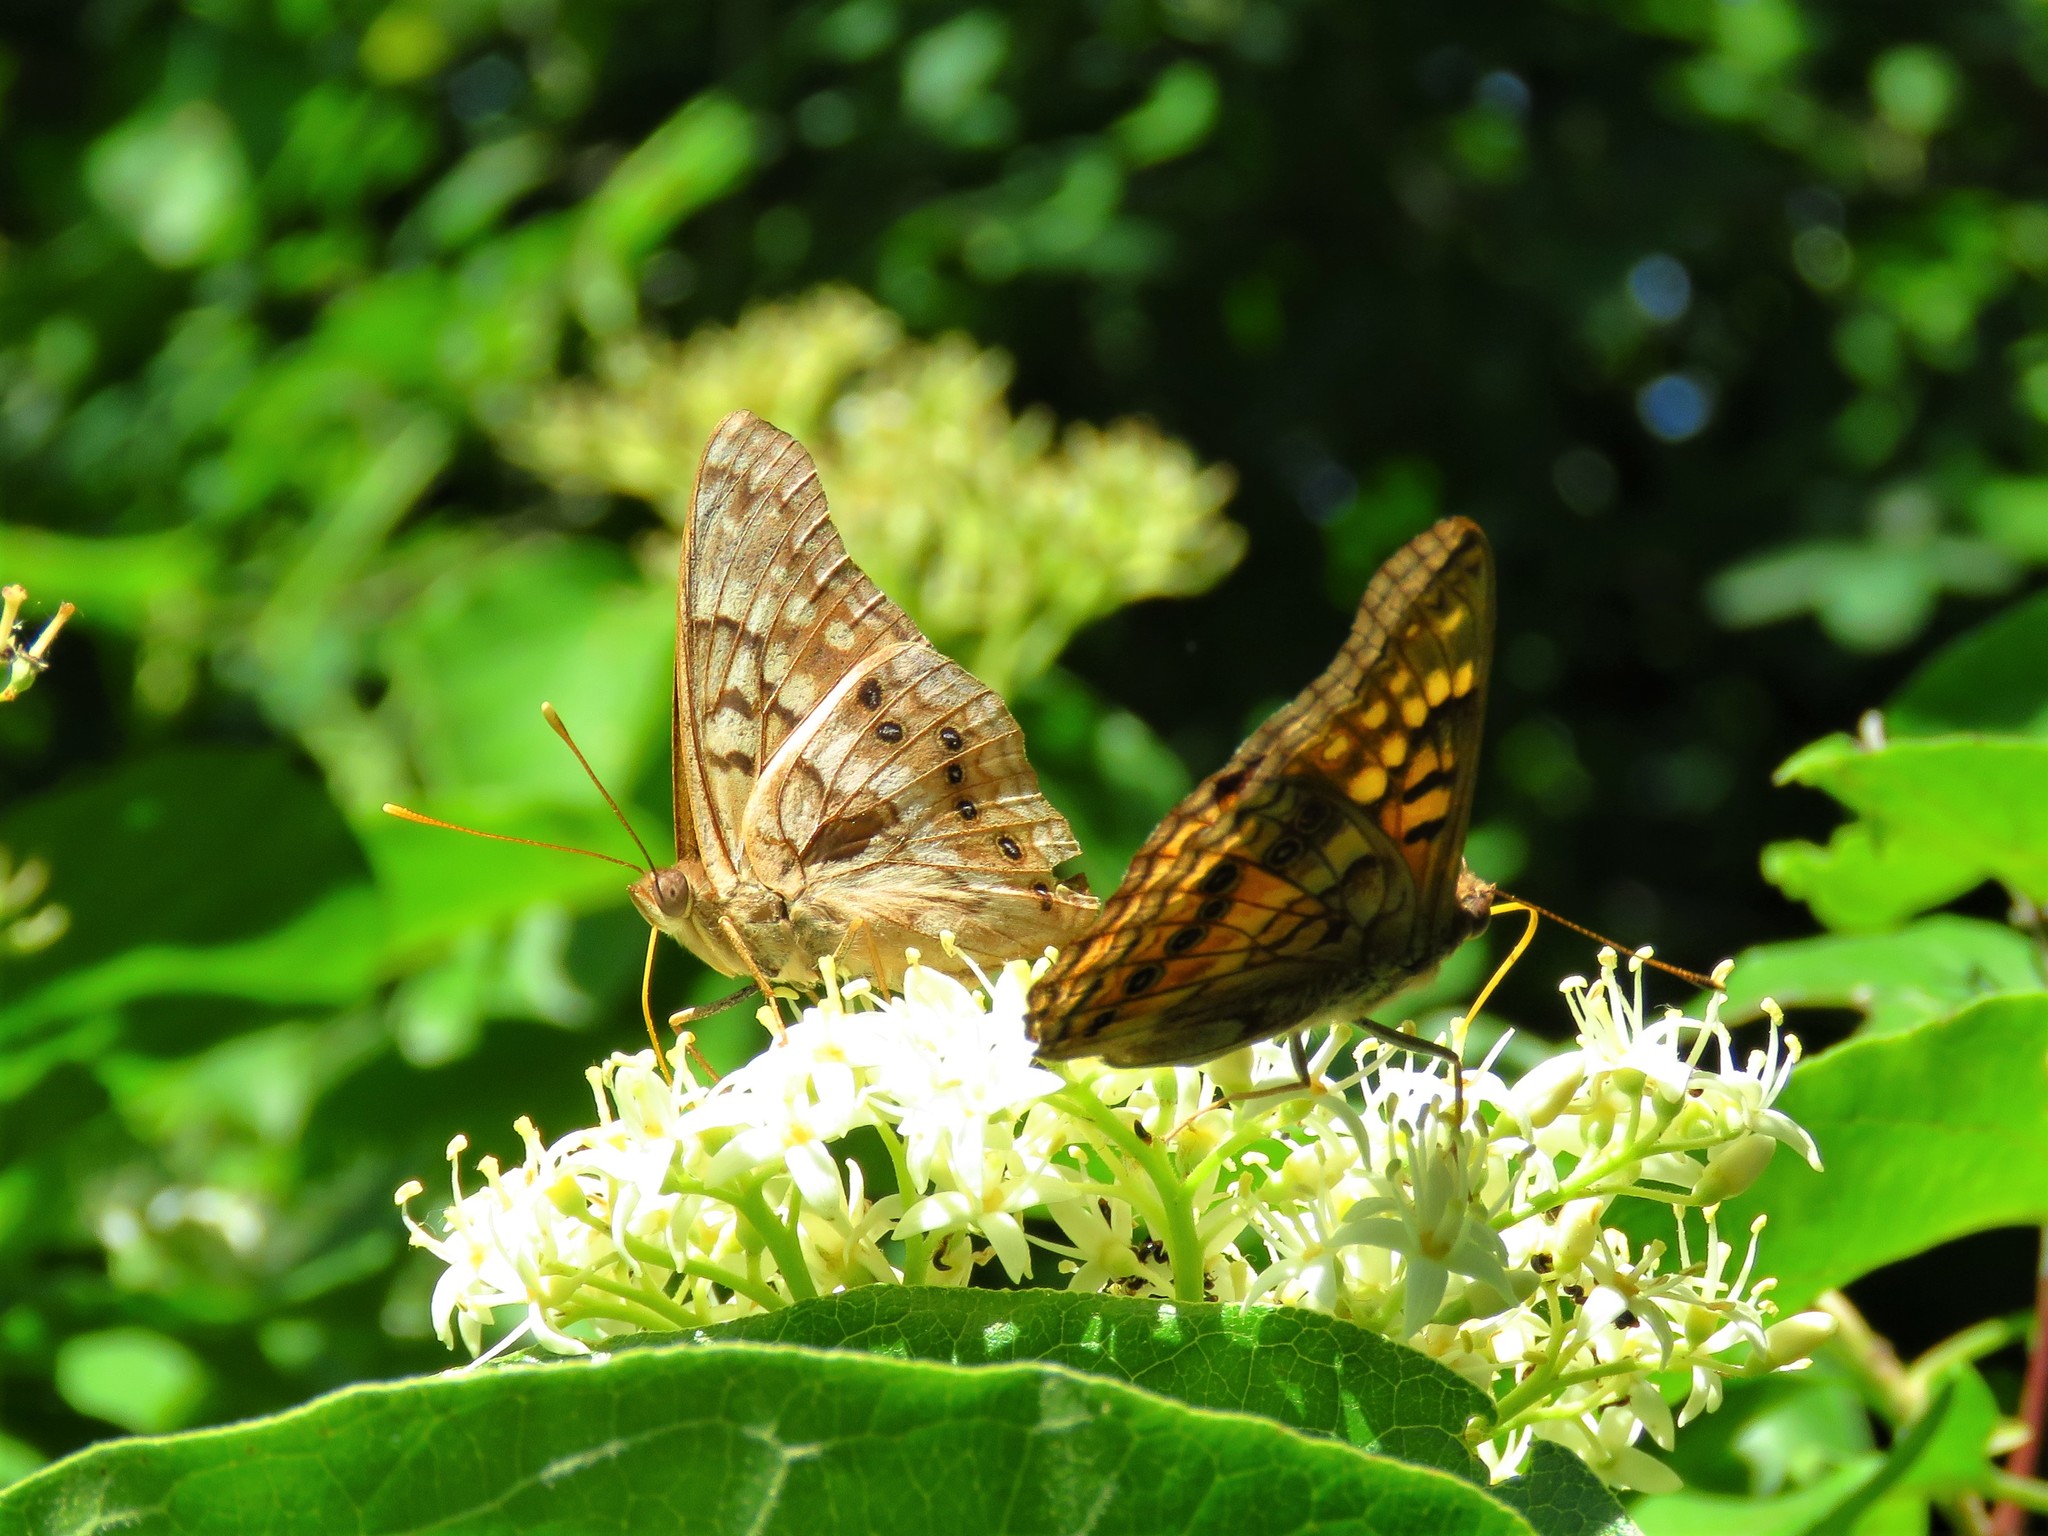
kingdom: Animalia
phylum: Arthropoda
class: Insecta
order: Lepidoptera
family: Nymphalidae
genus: Asterocampa
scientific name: Asterocampa clyton
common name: Tawny emperor
